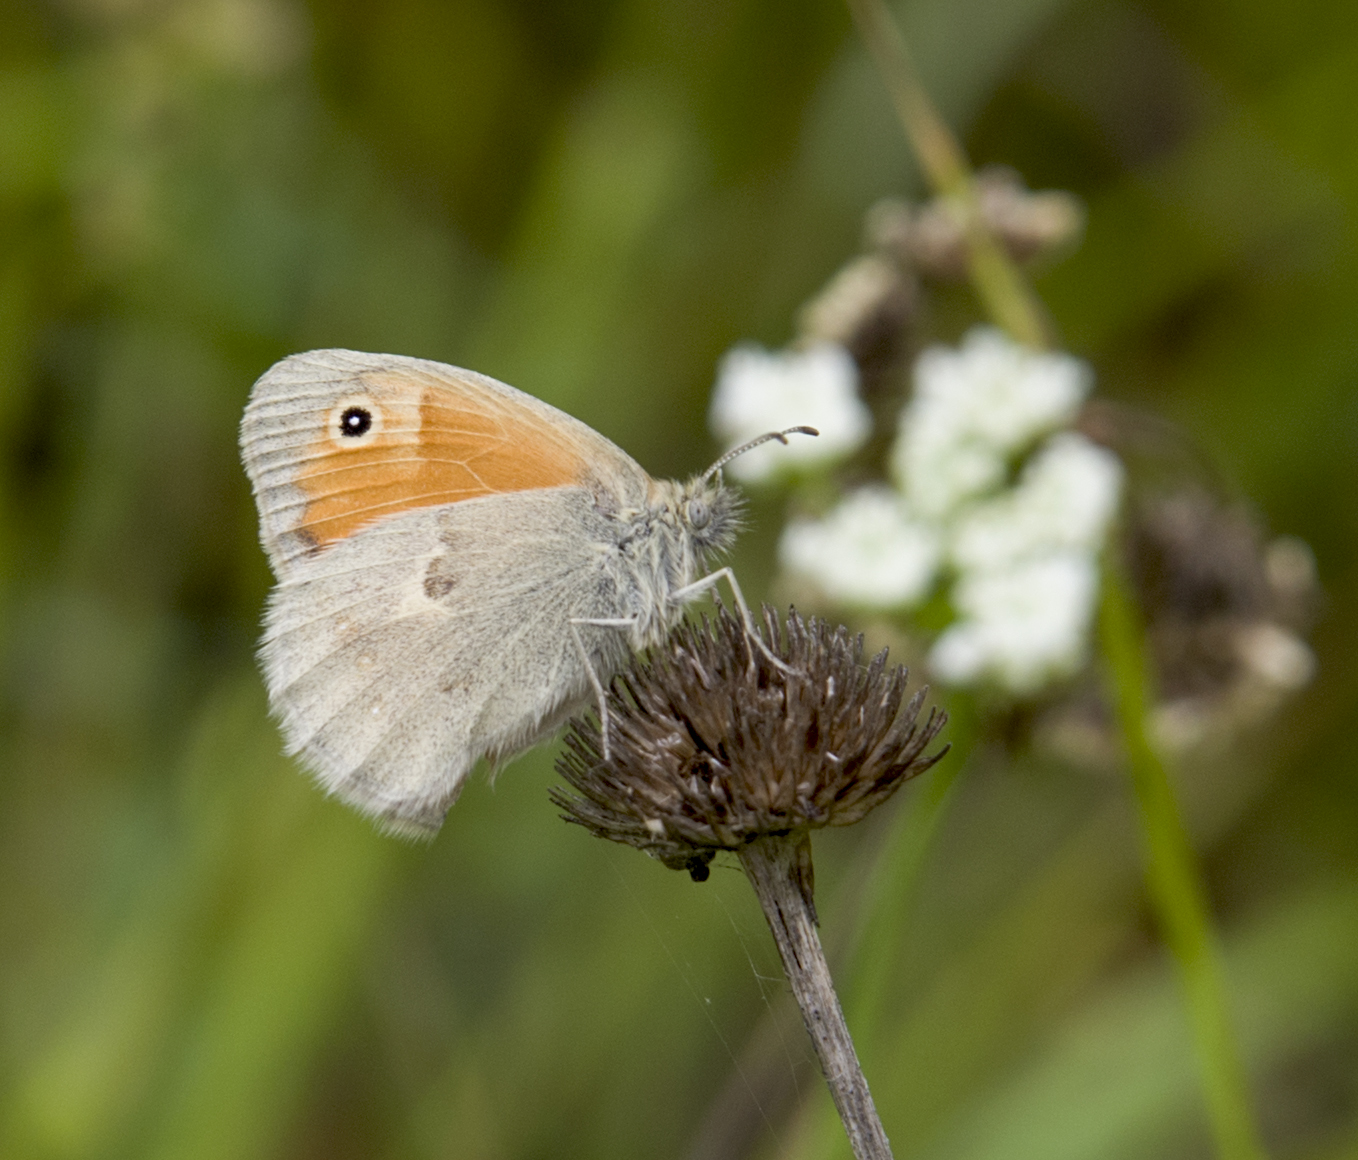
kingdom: Animalia
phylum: Arthropoda
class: Insecta
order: Lepidoptera
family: Nymphalidae
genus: Coenonympha
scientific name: Coenonympha pamphilus
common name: Small heath
